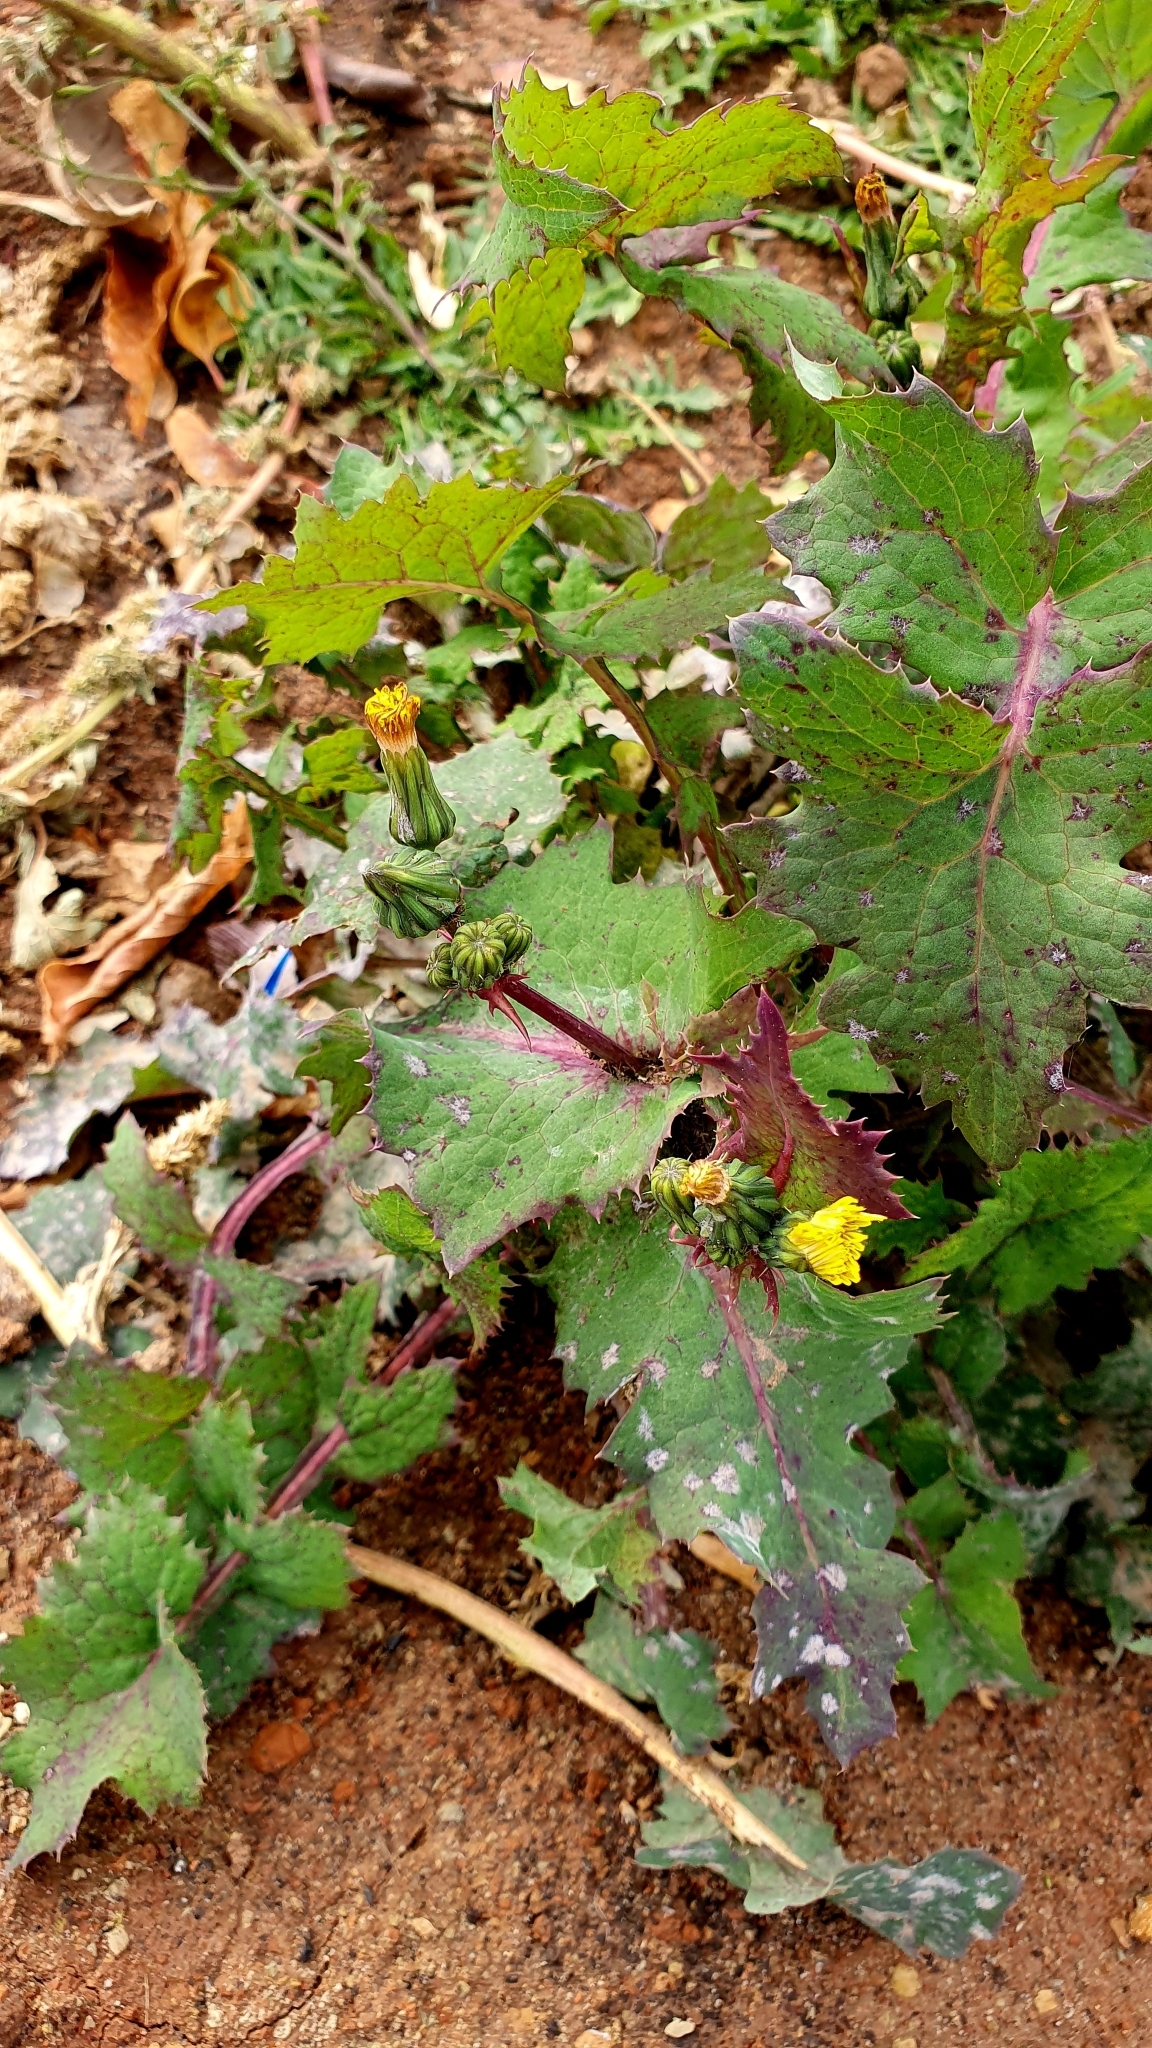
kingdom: Plantae
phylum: Tracheophyta
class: Magnoliopsida
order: Asterales
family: Asteraceae
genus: Sonchus
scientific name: Sonchus oleraceus
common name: Common sowthistle
